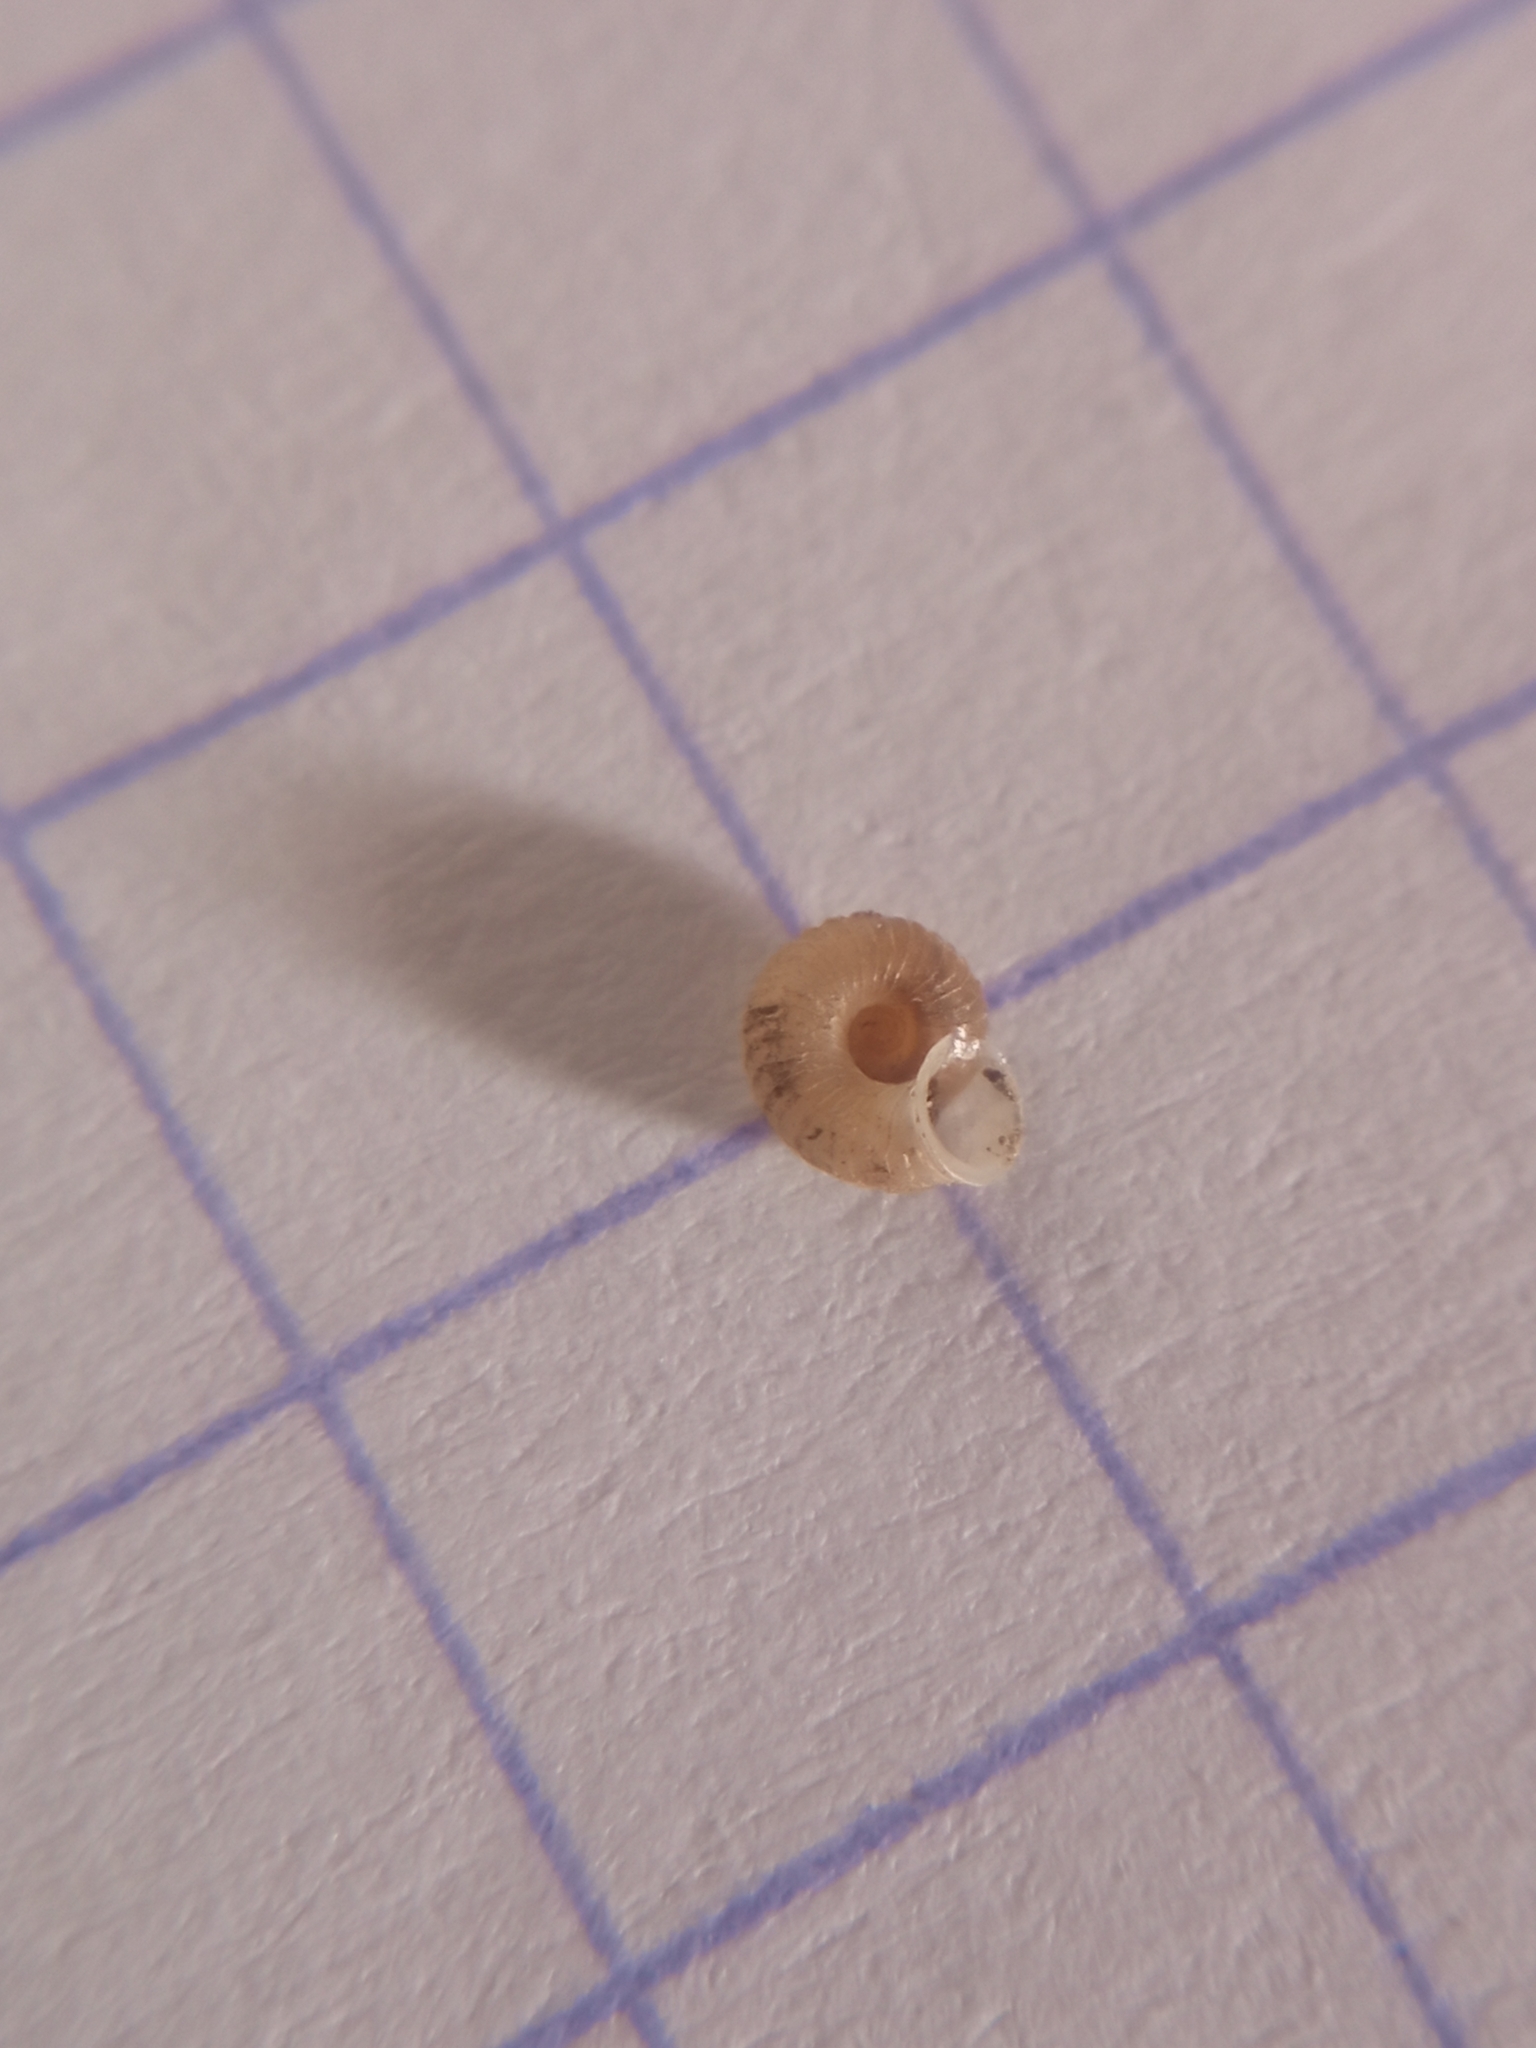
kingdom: Animalia
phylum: Mollusca
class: Gastropoda
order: Stylommatophora
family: Valloniidae
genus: Vallonia
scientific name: Vallonia costata
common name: Ribbed grass snail
